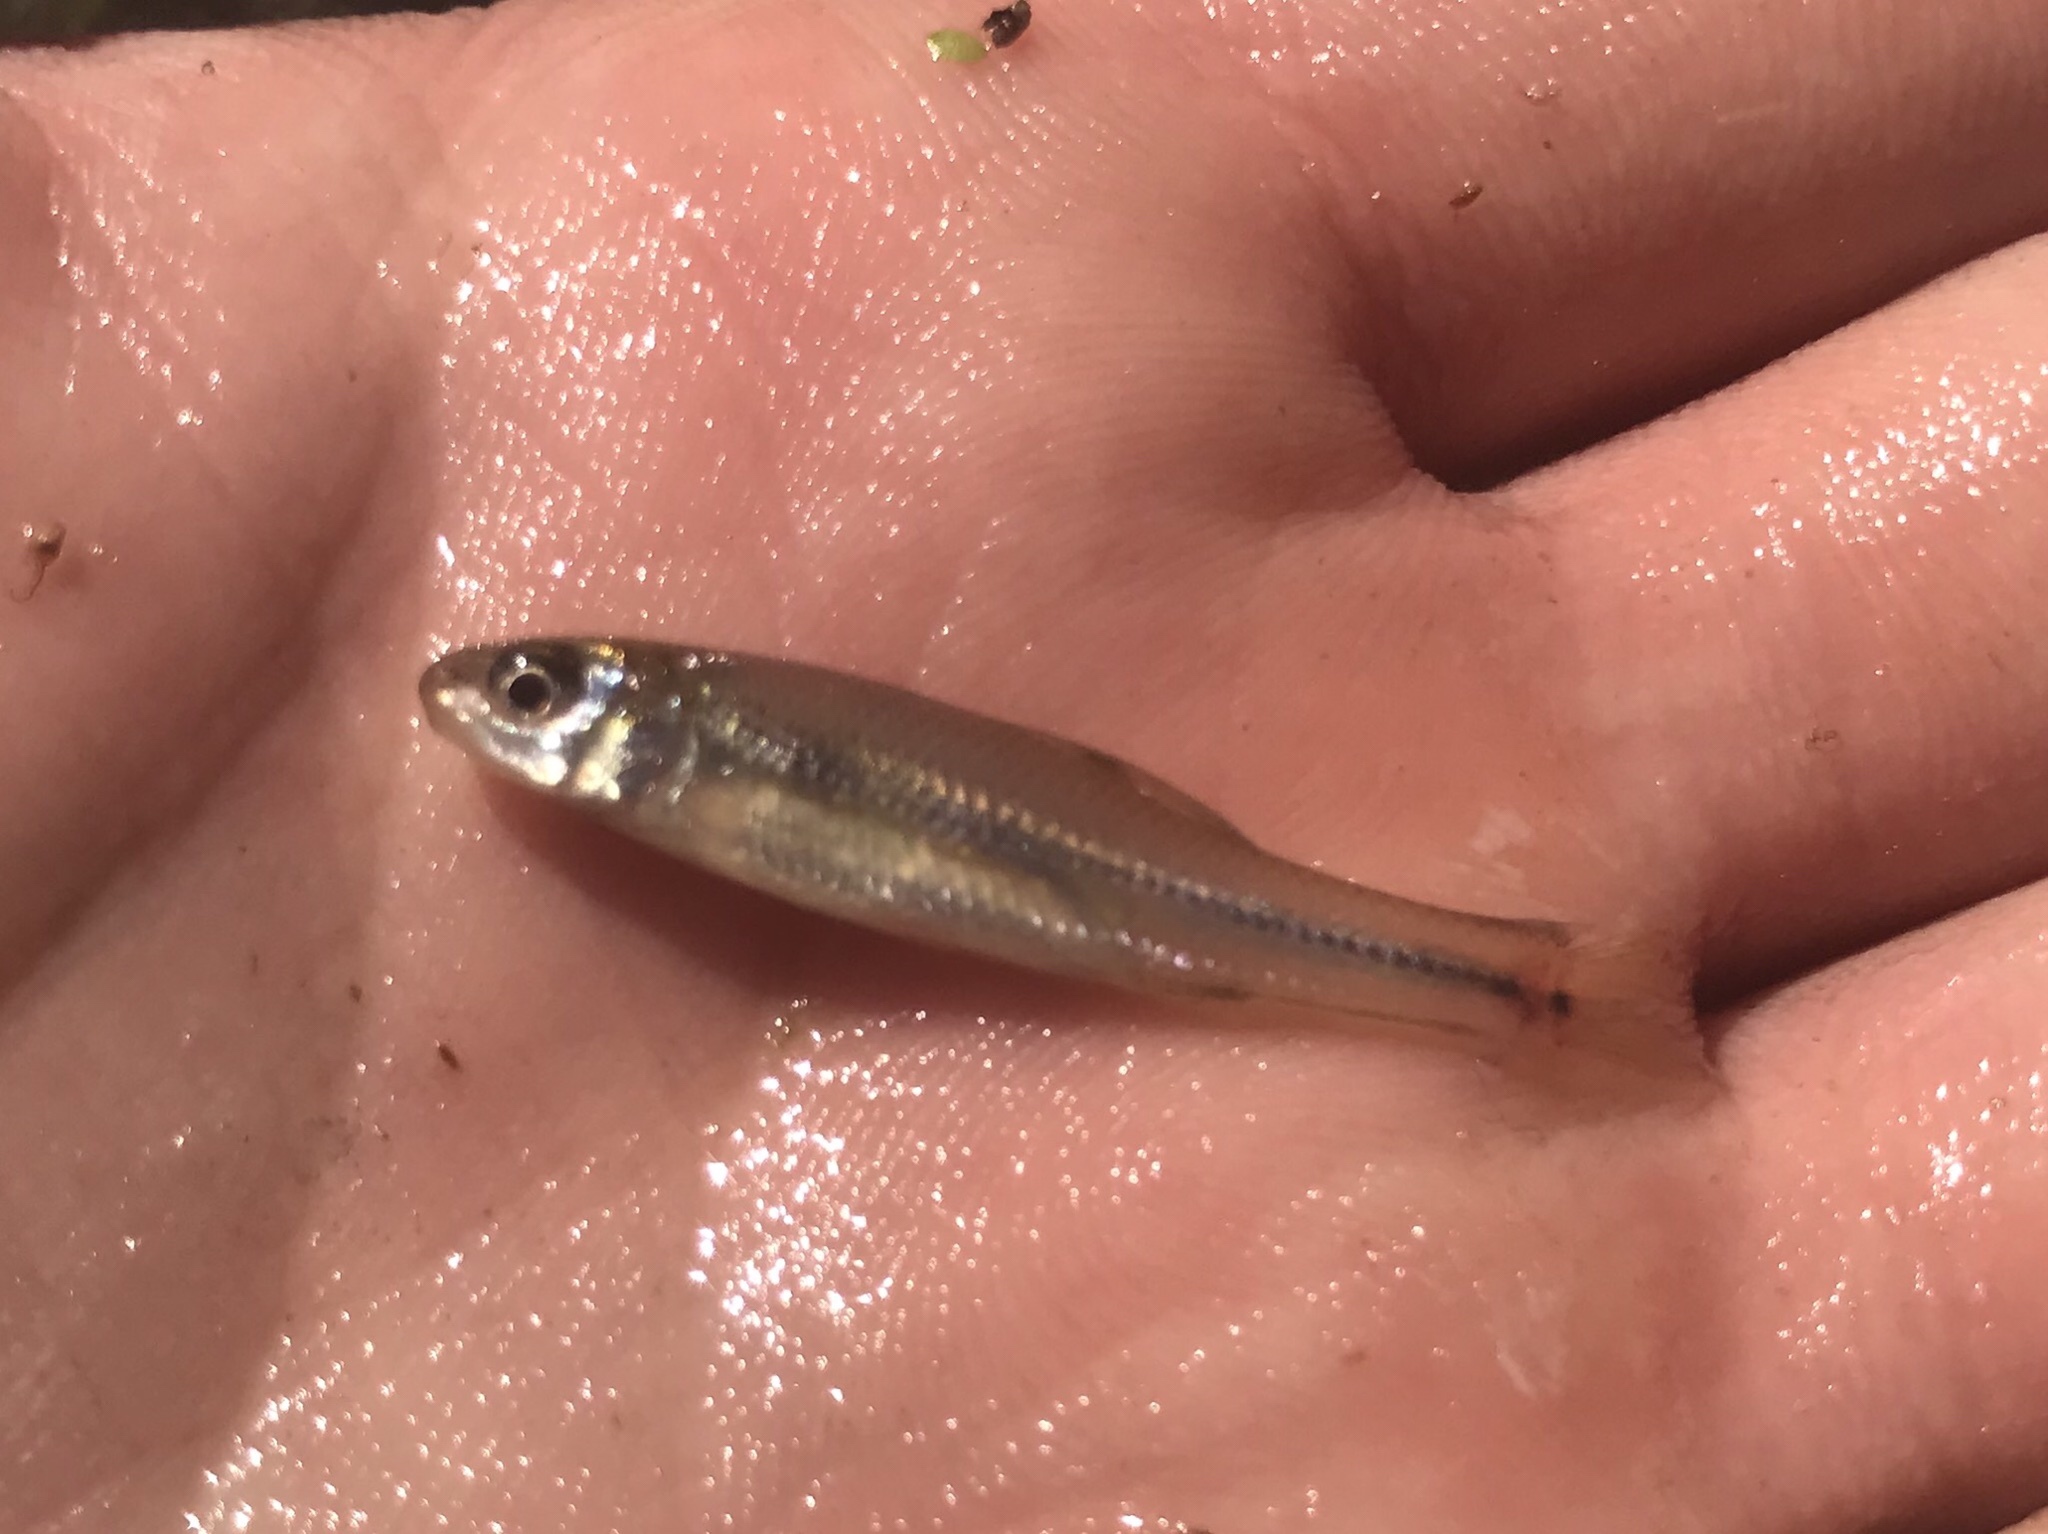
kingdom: Animalia
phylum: Chordata
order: Cypriniformes
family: Cyprinidae
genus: Pimephales
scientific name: Pimephales vigilax
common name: Bullhead minnow
